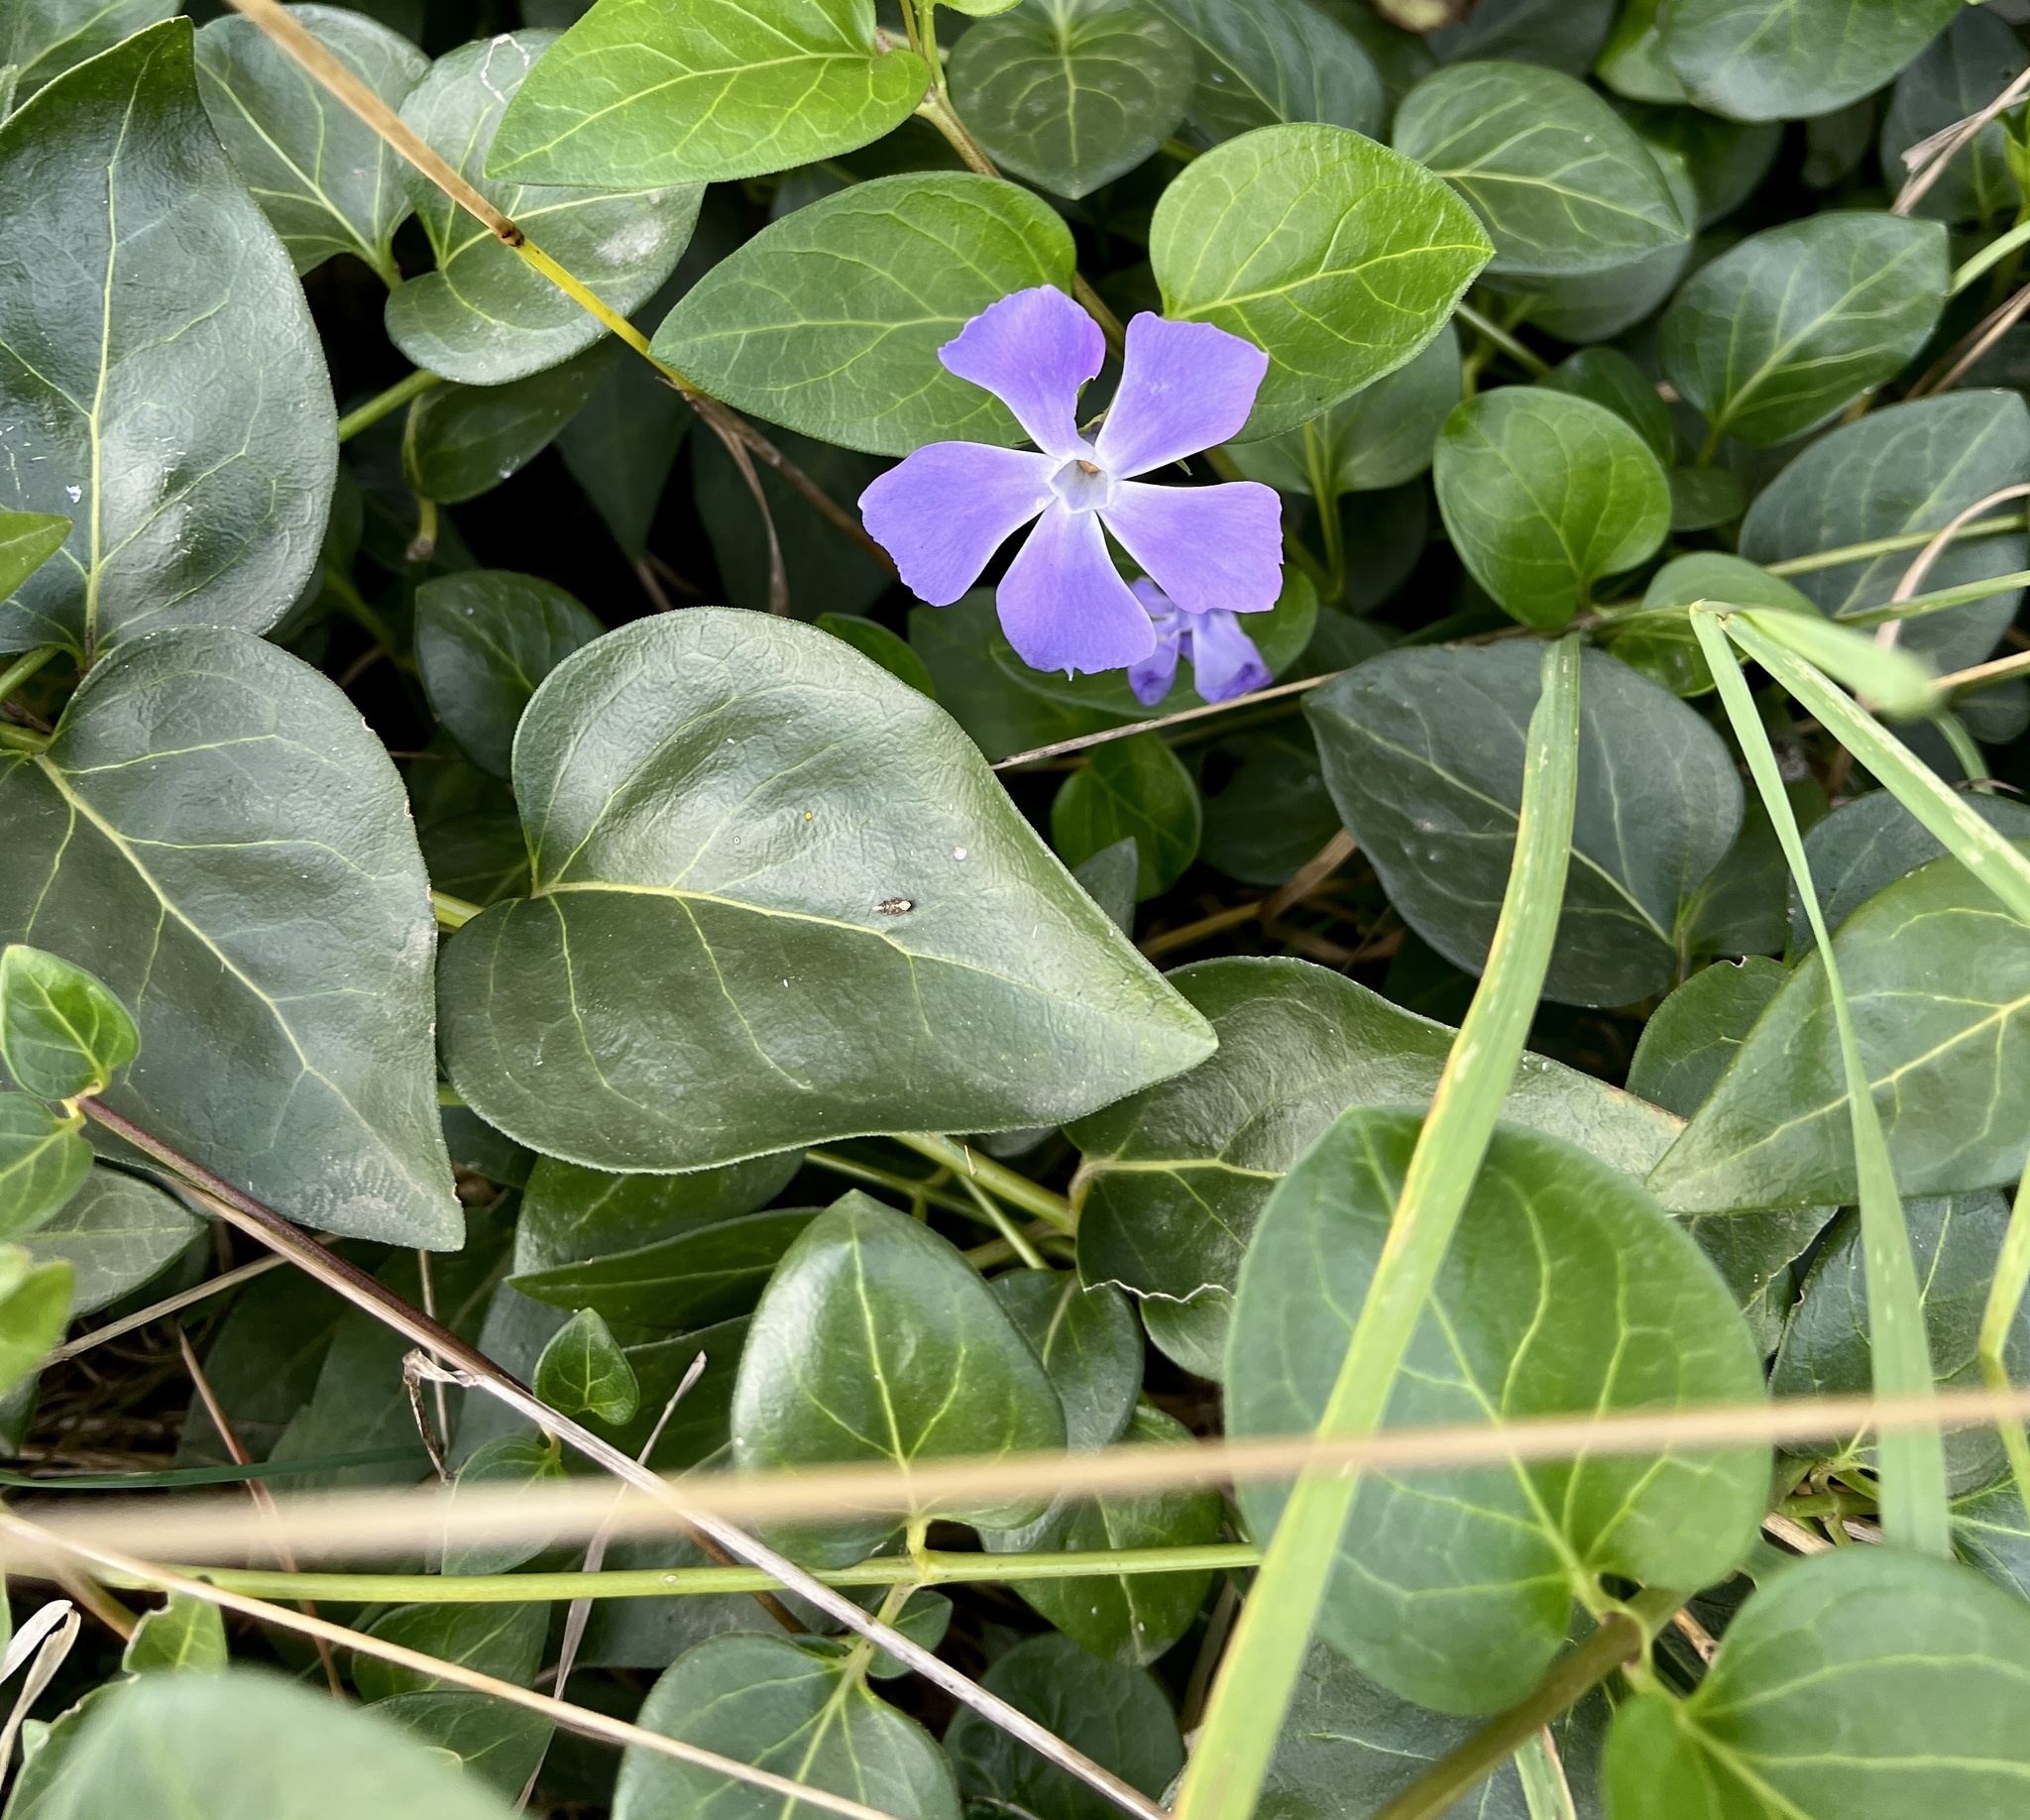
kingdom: Plantae
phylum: Tracheophyta
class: Magnoliopsida
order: Gentianales
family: Apocynaceae
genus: Vinca
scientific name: Vinca major
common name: Greater periwinkle
